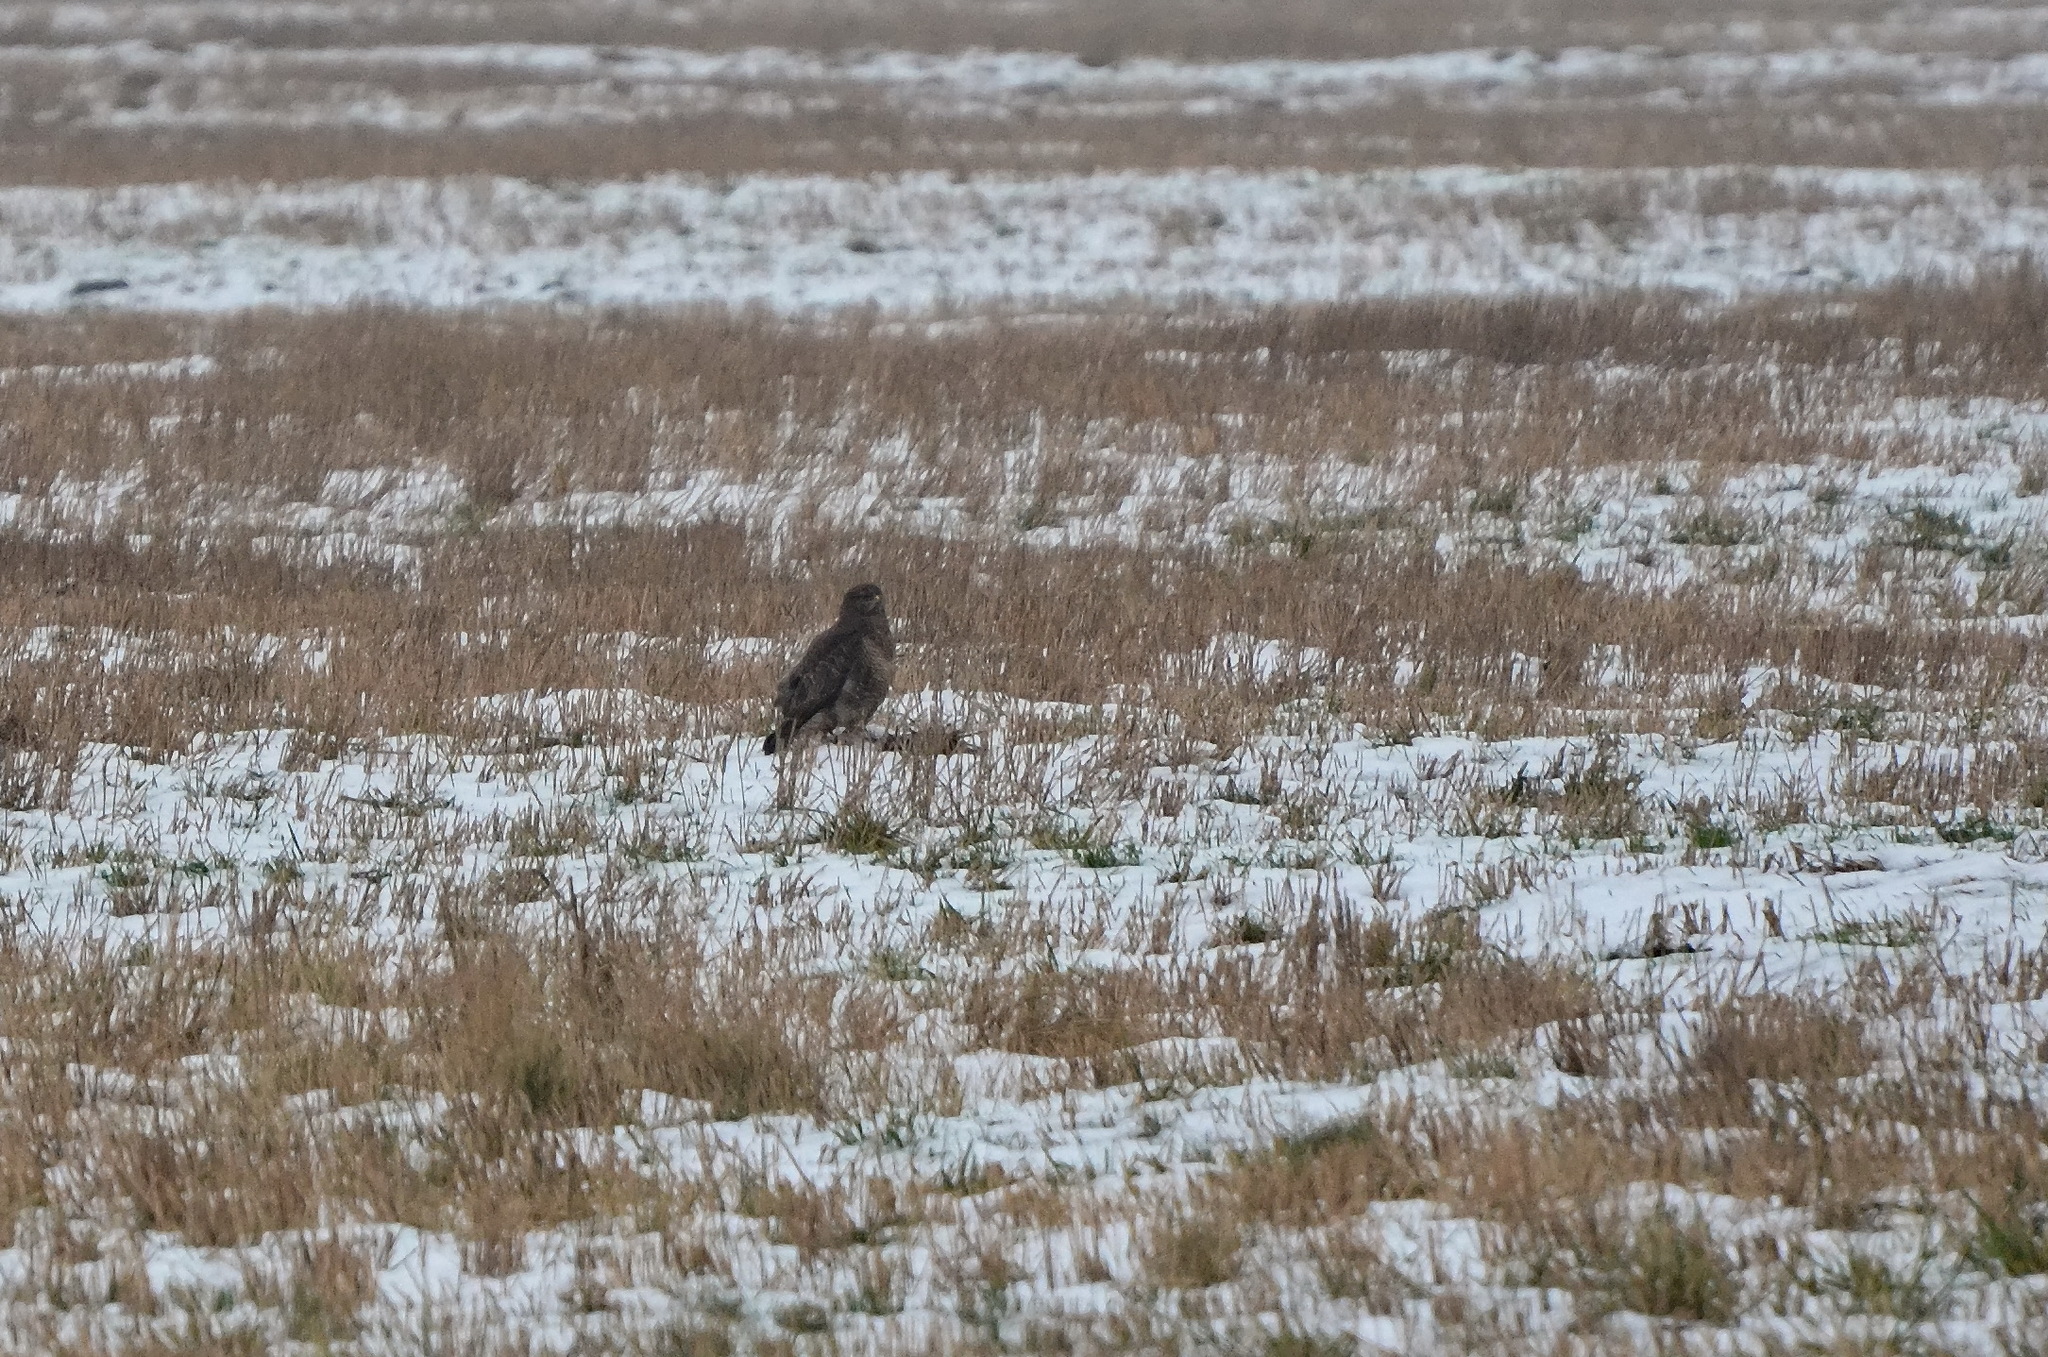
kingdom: Animalia
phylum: Chordata
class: Aves
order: Accipitriformes
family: Accipitridae
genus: Buteo
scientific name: Buteo buteo
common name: Common buzzard
